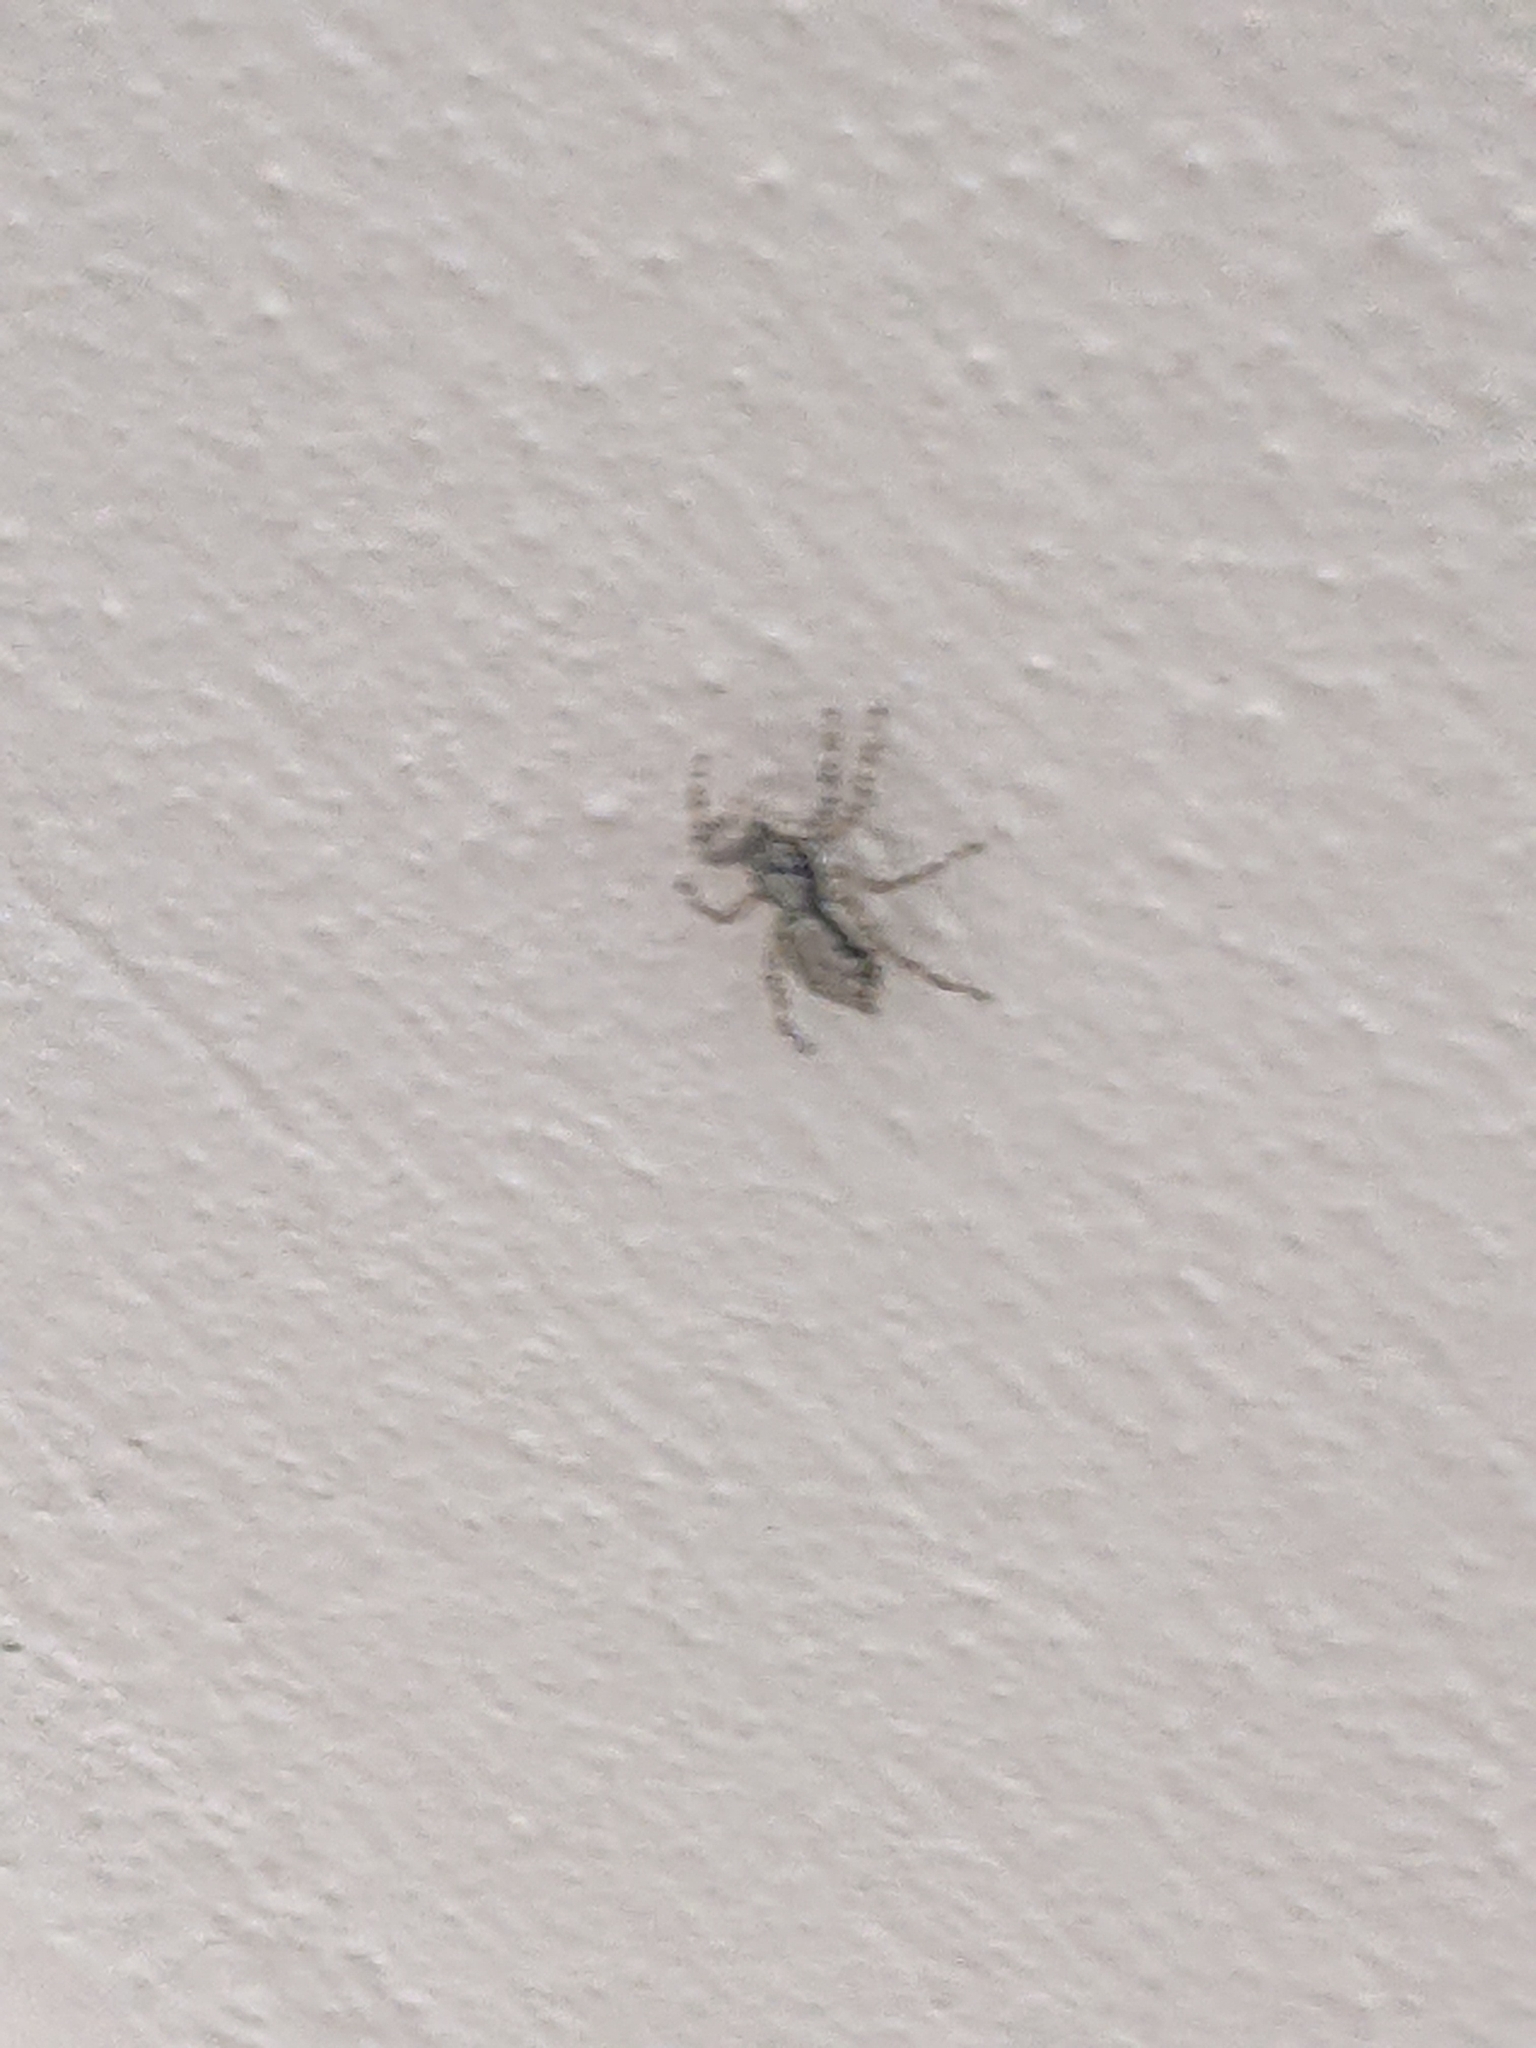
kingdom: Animalia
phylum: Arthropoda
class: Arachnida
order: Araneae
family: Salticidae
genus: Menemerus
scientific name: Menemerus bivittatus
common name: Gray wall jumper
